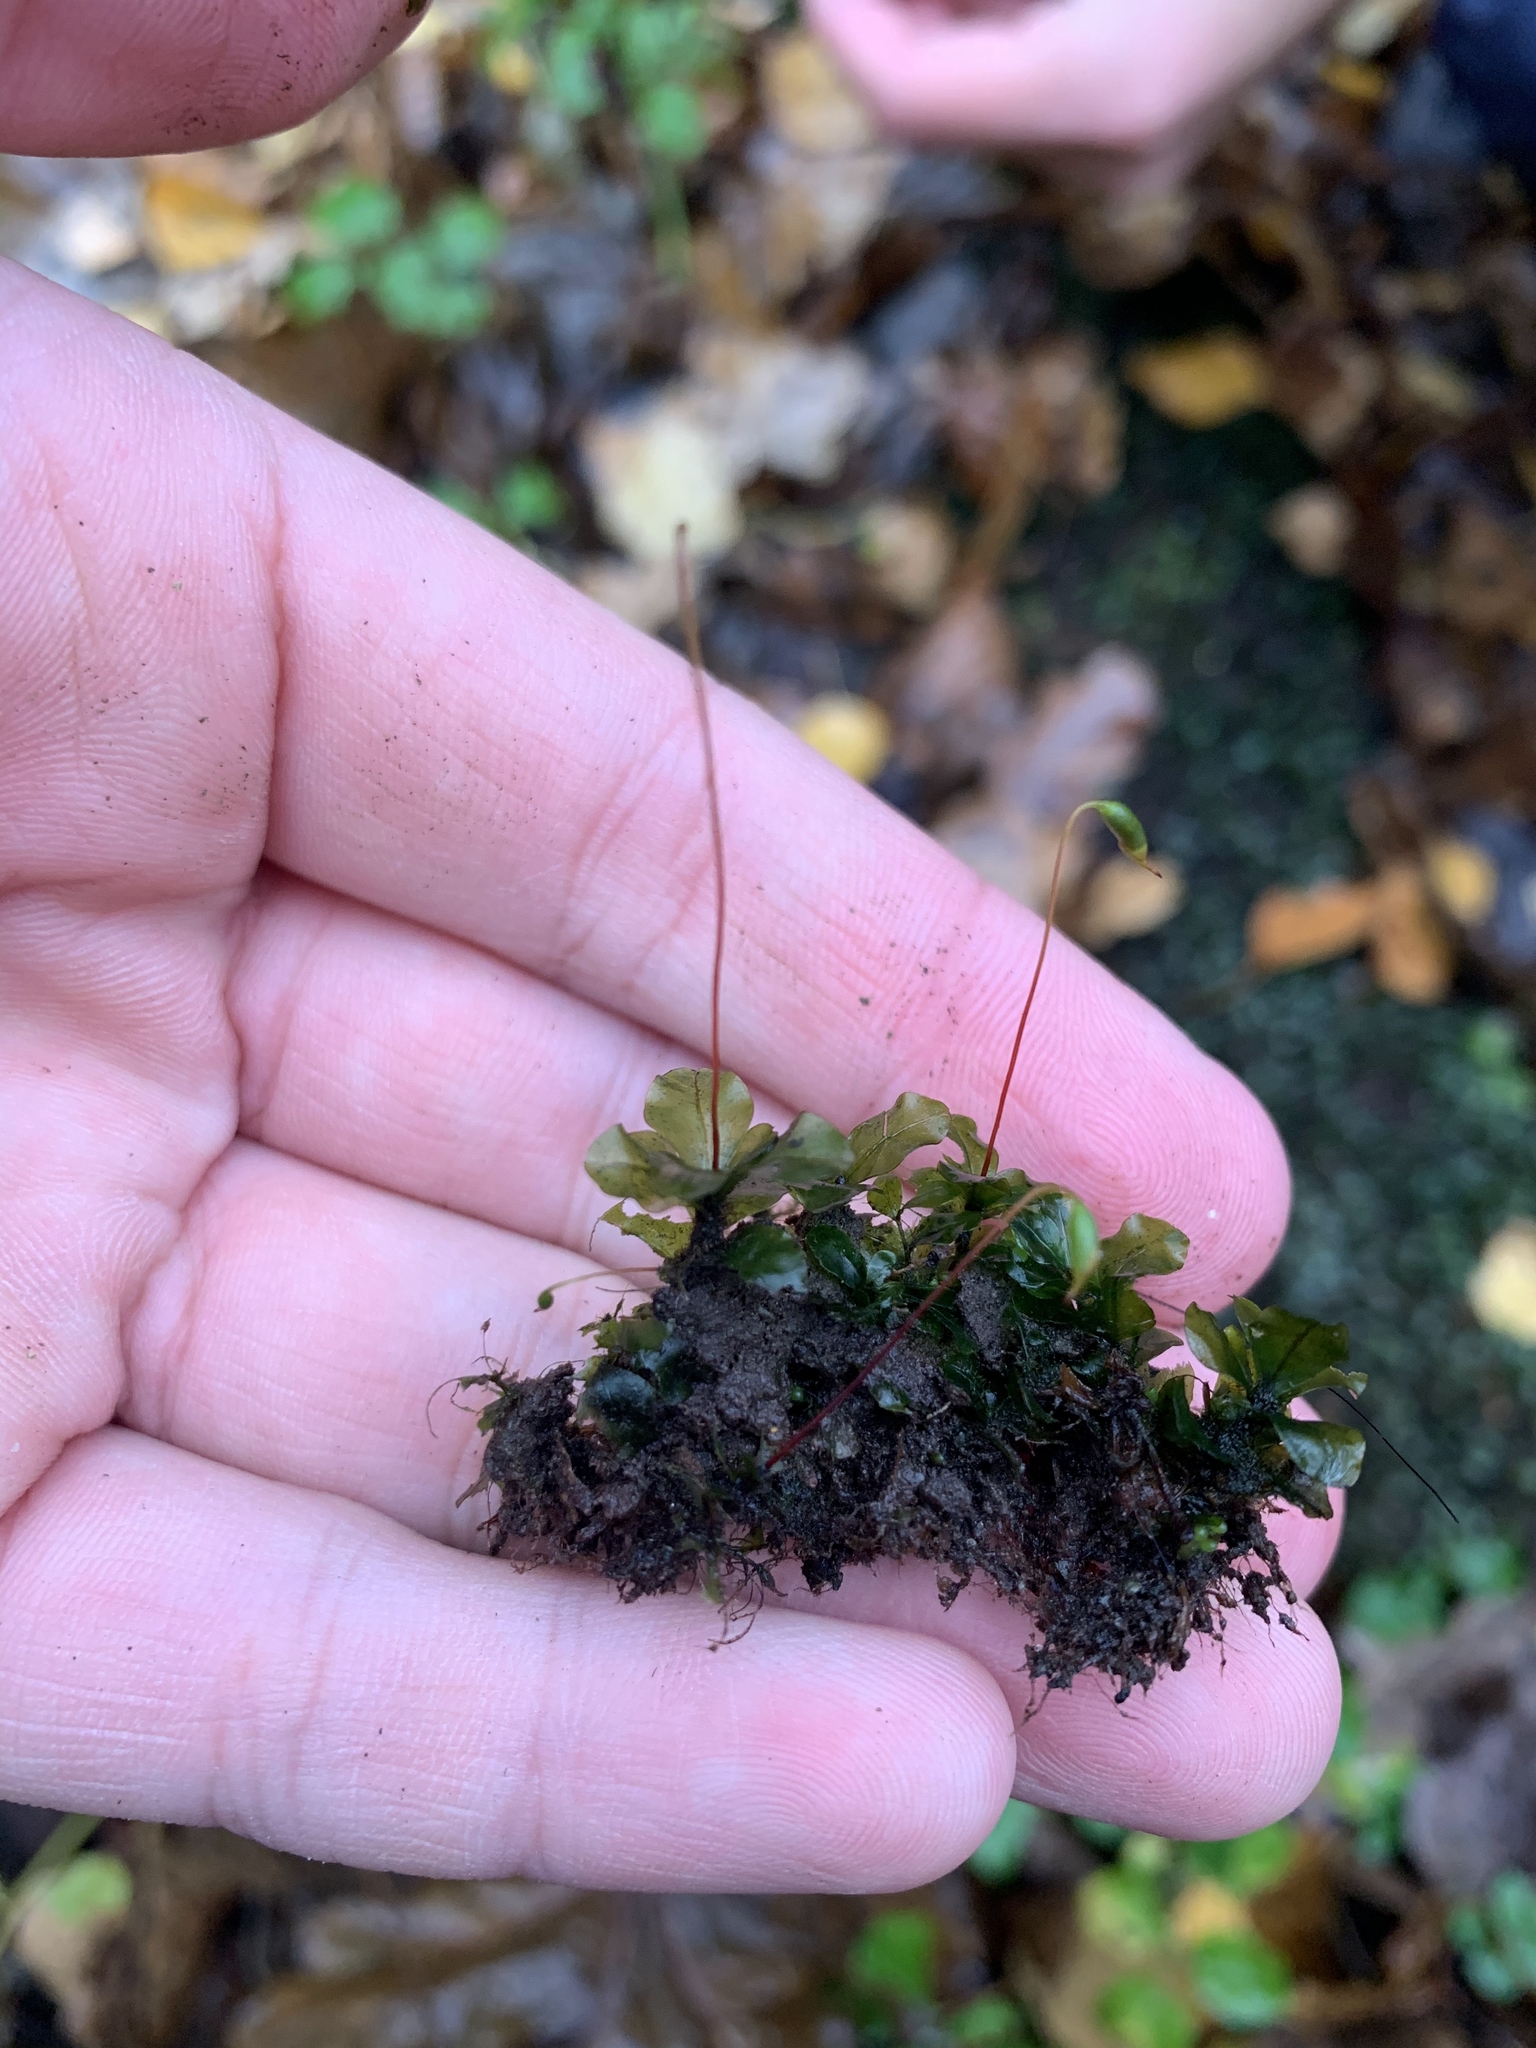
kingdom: Plantae
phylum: Bryophyta
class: Bryopsida
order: Bryales
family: Mniaceae
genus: Rhizomnium
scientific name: Rhizomnium punctatum
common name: Dotted leafy moss
